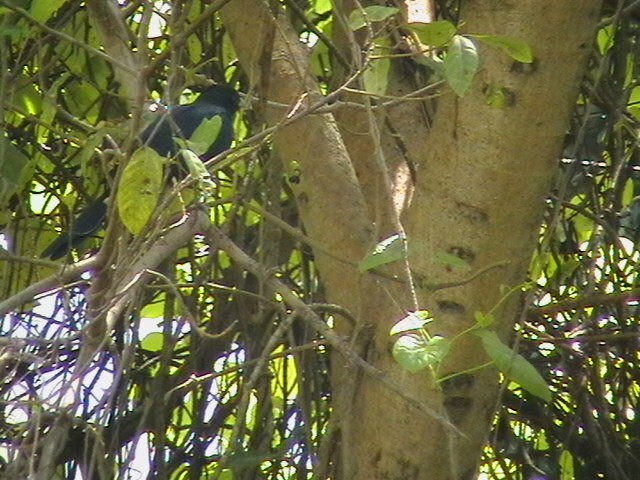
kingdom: Animalia
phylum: Chordata
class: Aves
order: Cuculiformes
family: Cuculidae
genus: Eudynamys
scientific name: Eudynamys scolopaceus
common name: Asian koel
